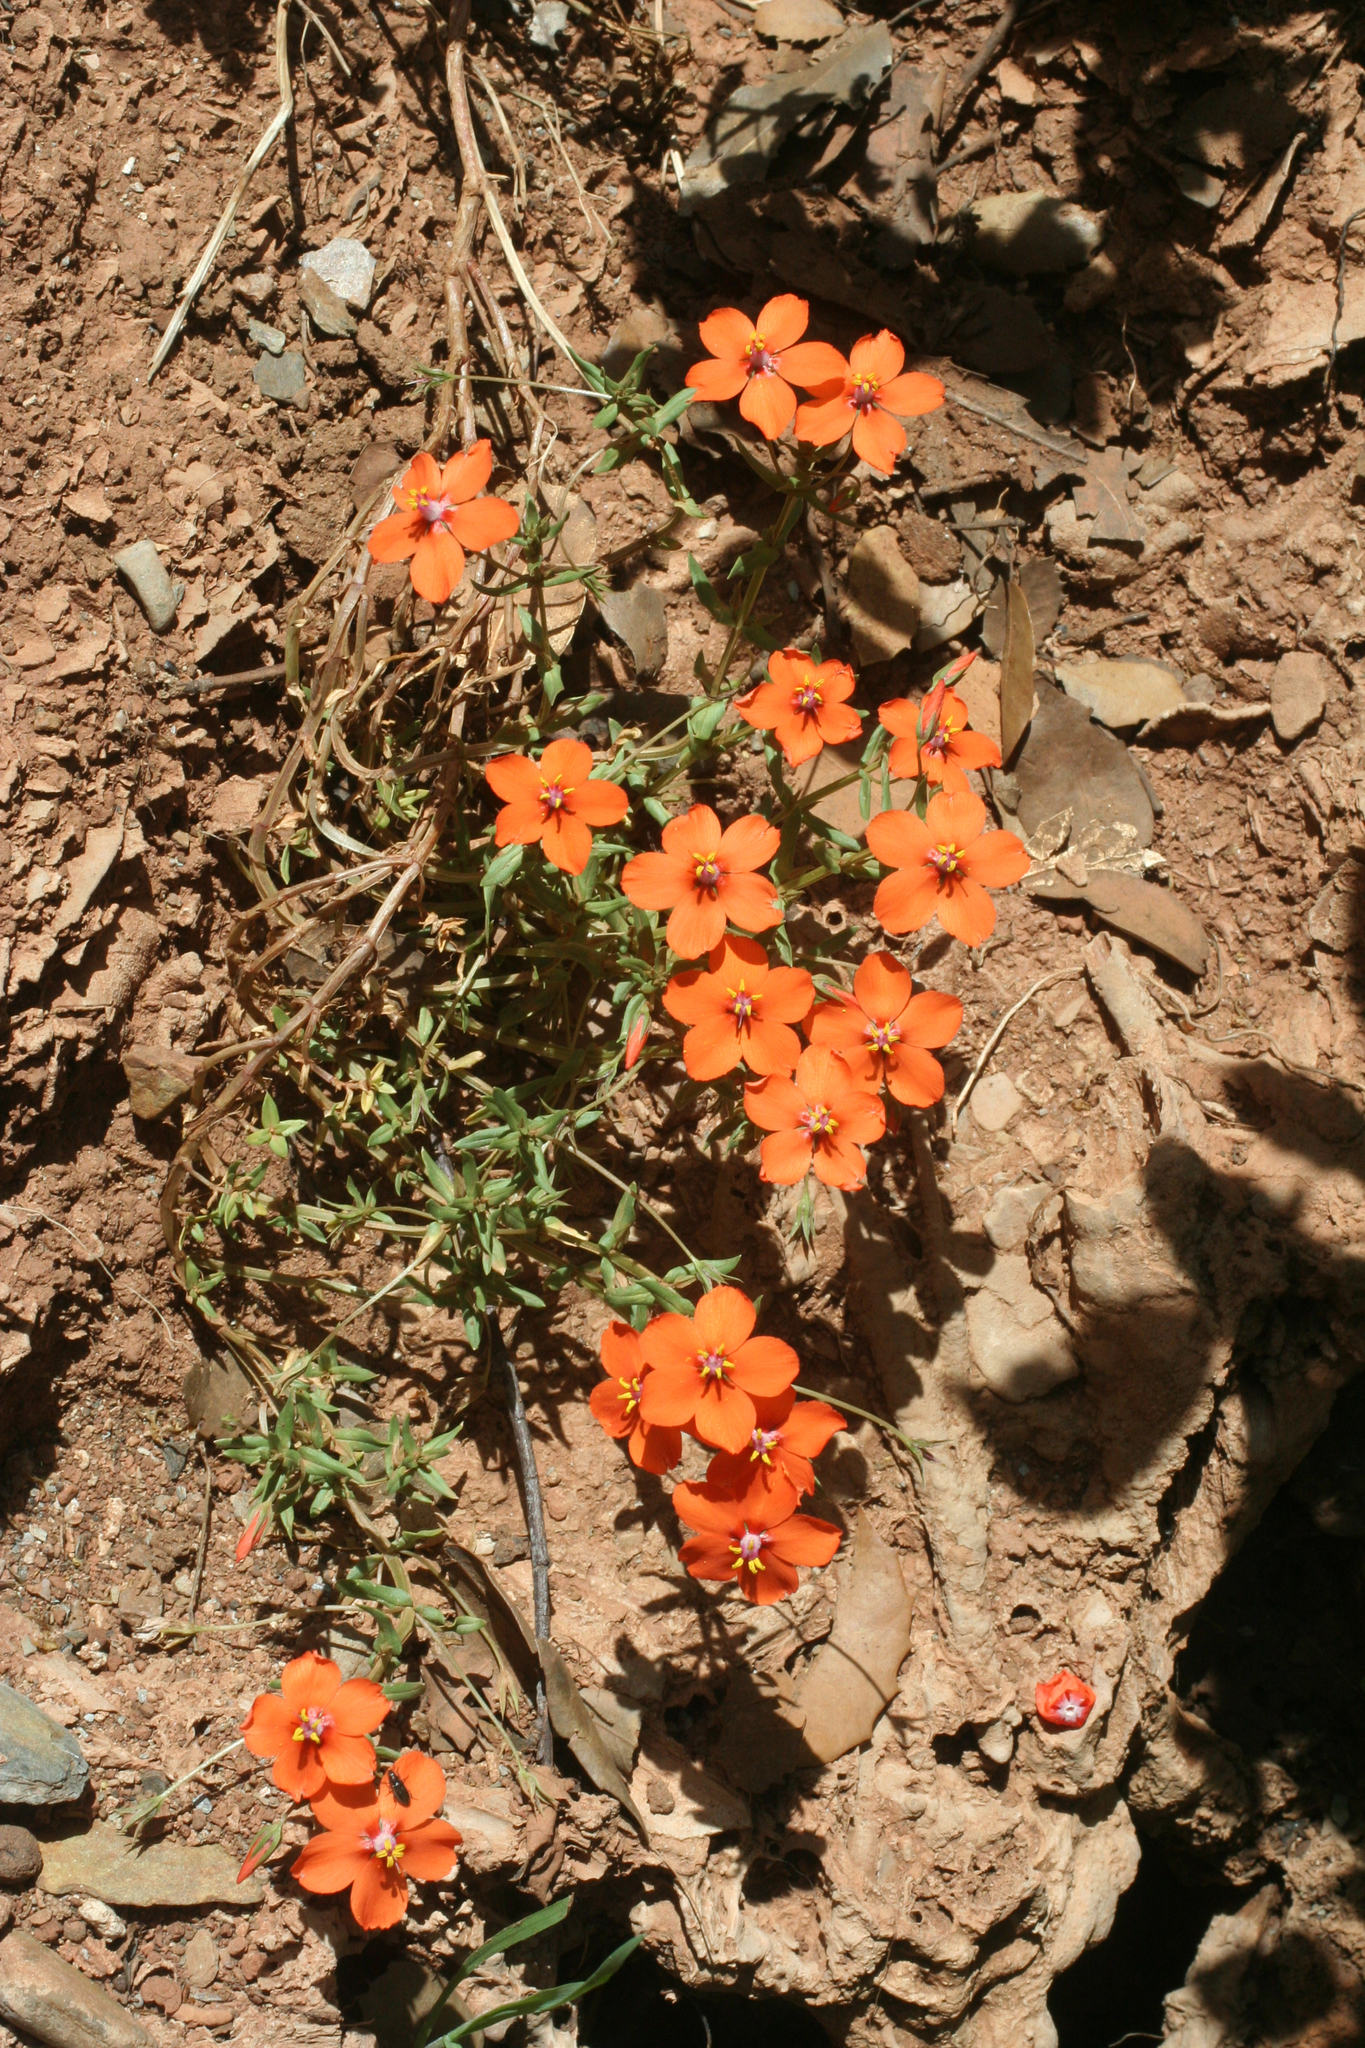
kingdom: Plantae
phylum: Tracheophyta
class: Magnoliopsida
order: Ericales
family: Primulaceae
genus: Lysimachia
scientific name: Lysimachia collina
